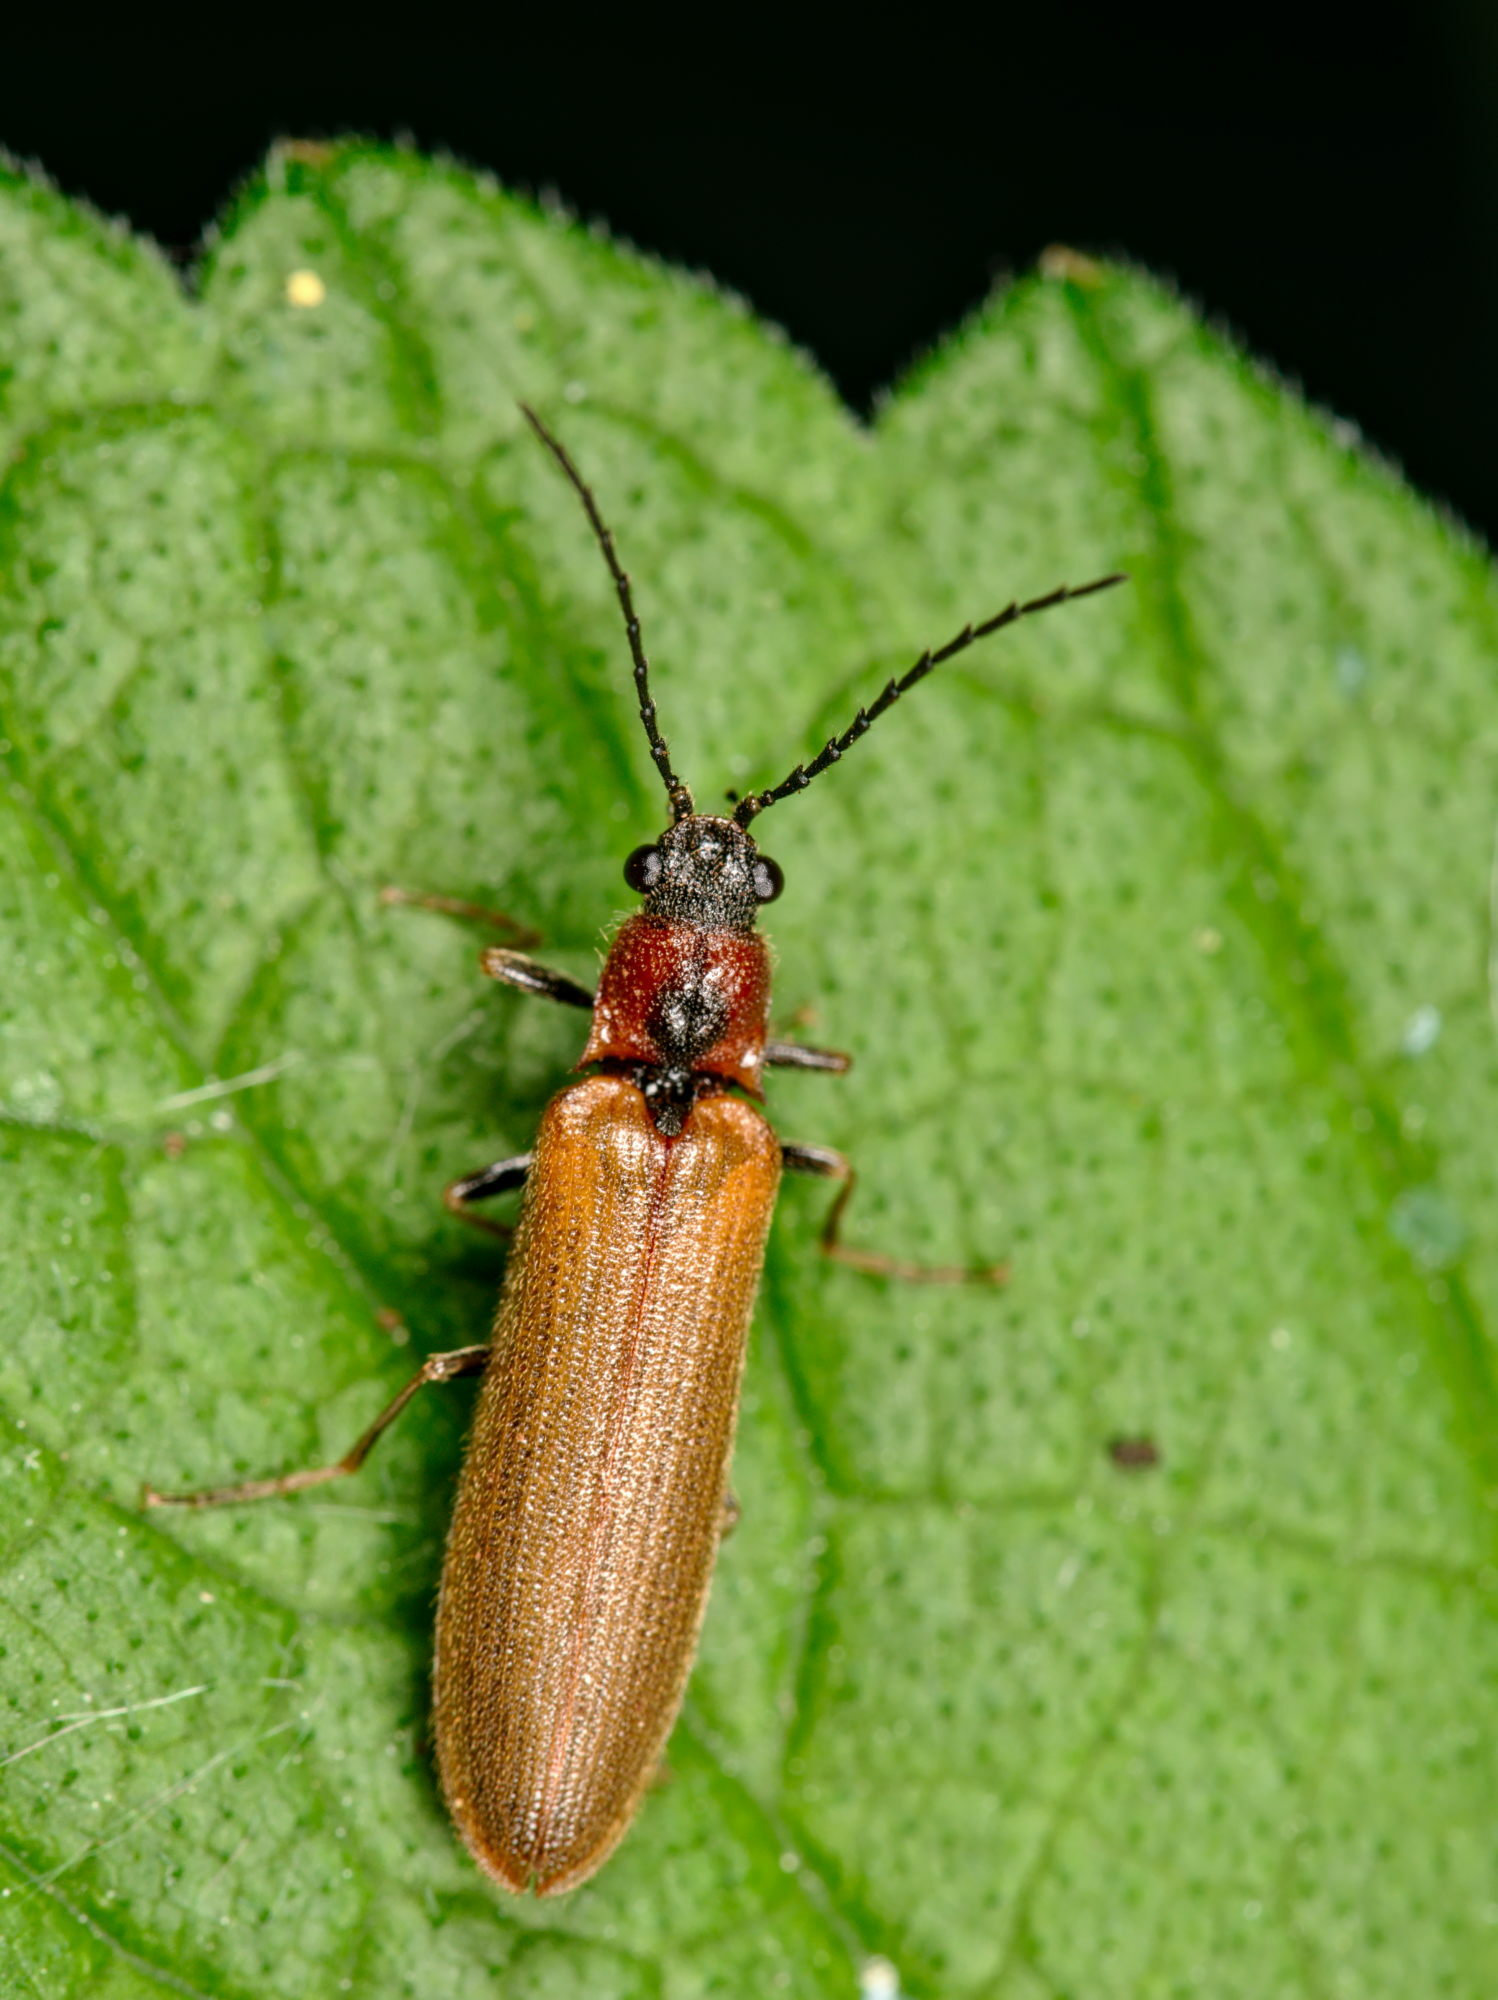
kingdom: Animalia
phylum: Arthropoda
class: Insecta
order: Coleoptera
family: Elateridae
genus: Denticollis
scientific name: Denticollis linearis
